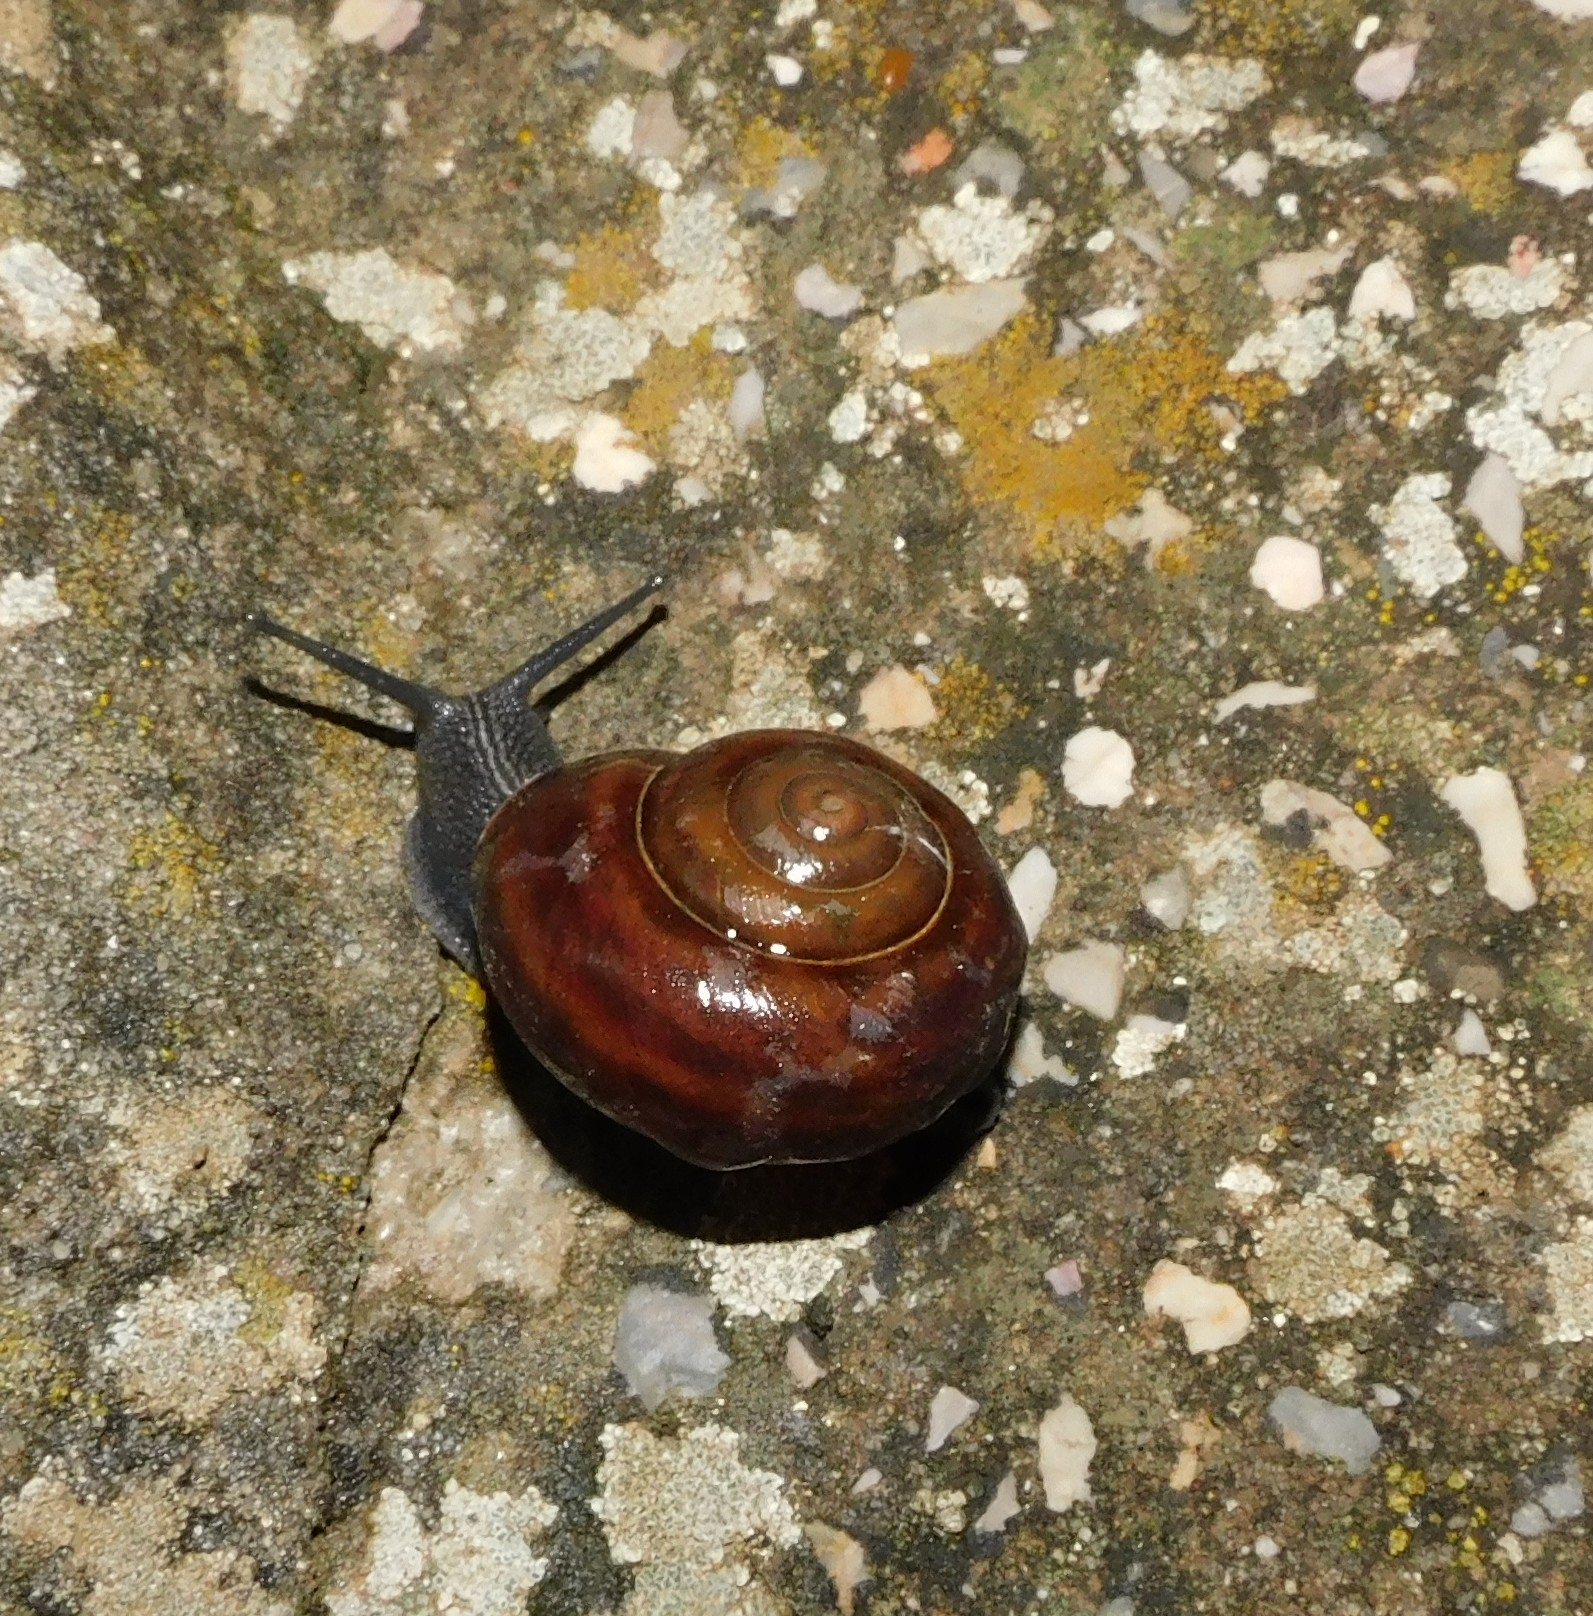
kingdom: Animalia
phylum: Mollusca
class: Gastropoda
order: Stylommatophora
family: Helicidae
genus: Tacheocampylaea
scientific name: Tacheocampylaea tacheoides
